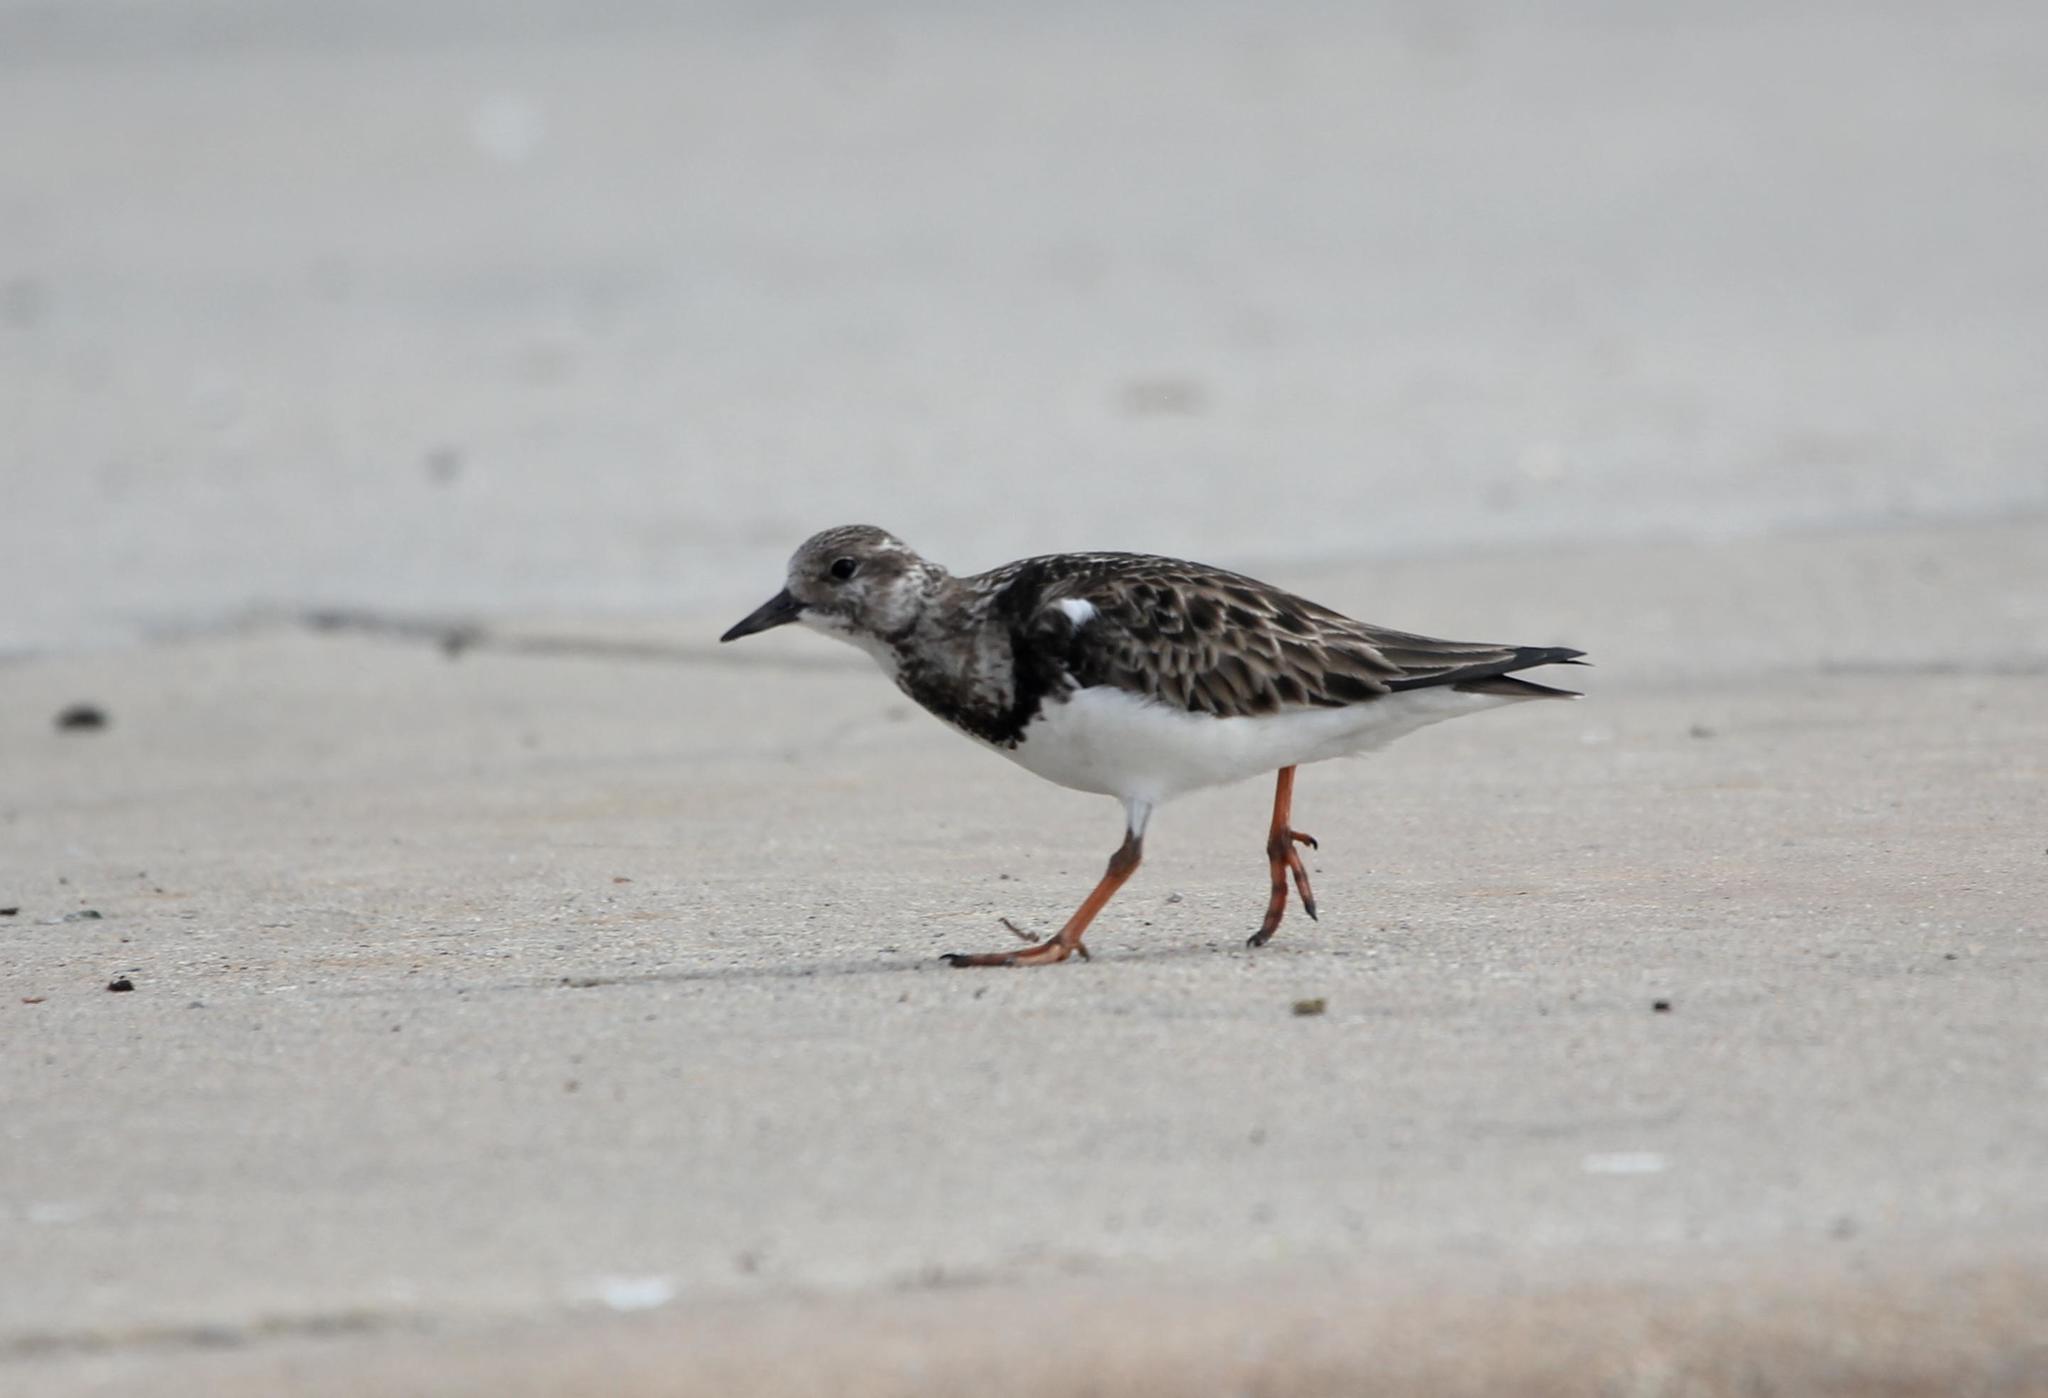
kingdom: Animalia
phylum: Chordata
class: Aves
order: Charadriiformes
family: Scolopacidae
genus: Arenaria
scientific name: Arenaria interpres
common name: Ruddy turnstone
